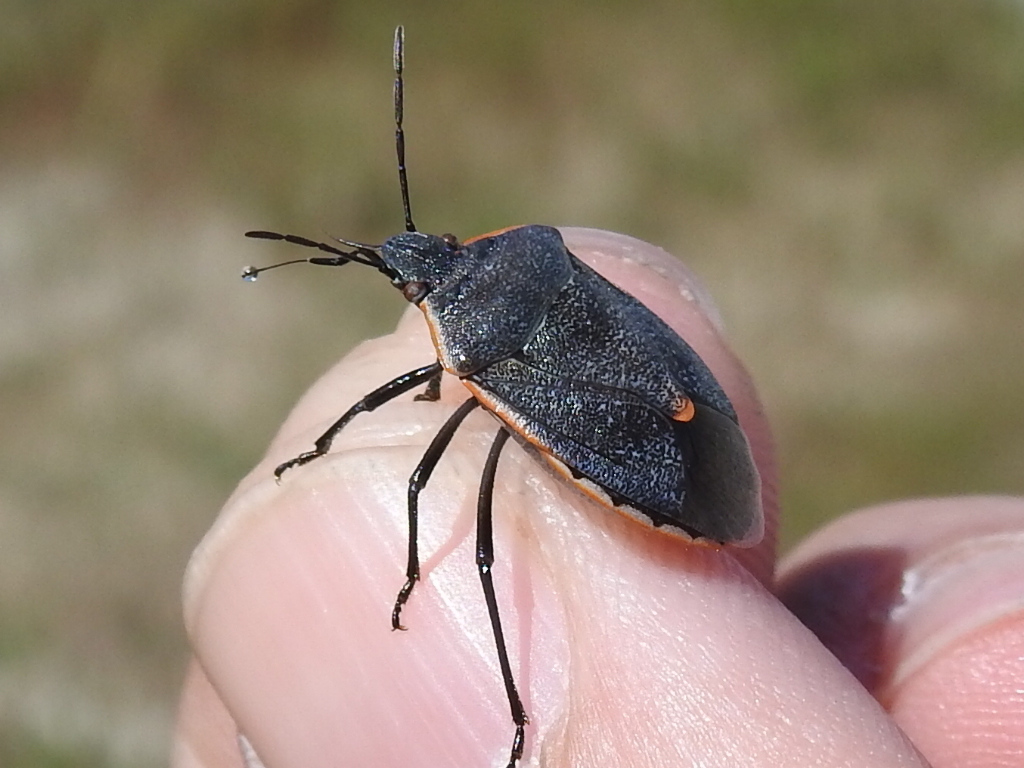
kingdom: Animalia
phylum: Arthropoda
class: Insecta
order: Hemiptera
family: Pentatomidae
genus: Chlorochroa
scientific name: Chlorochroa ligata
